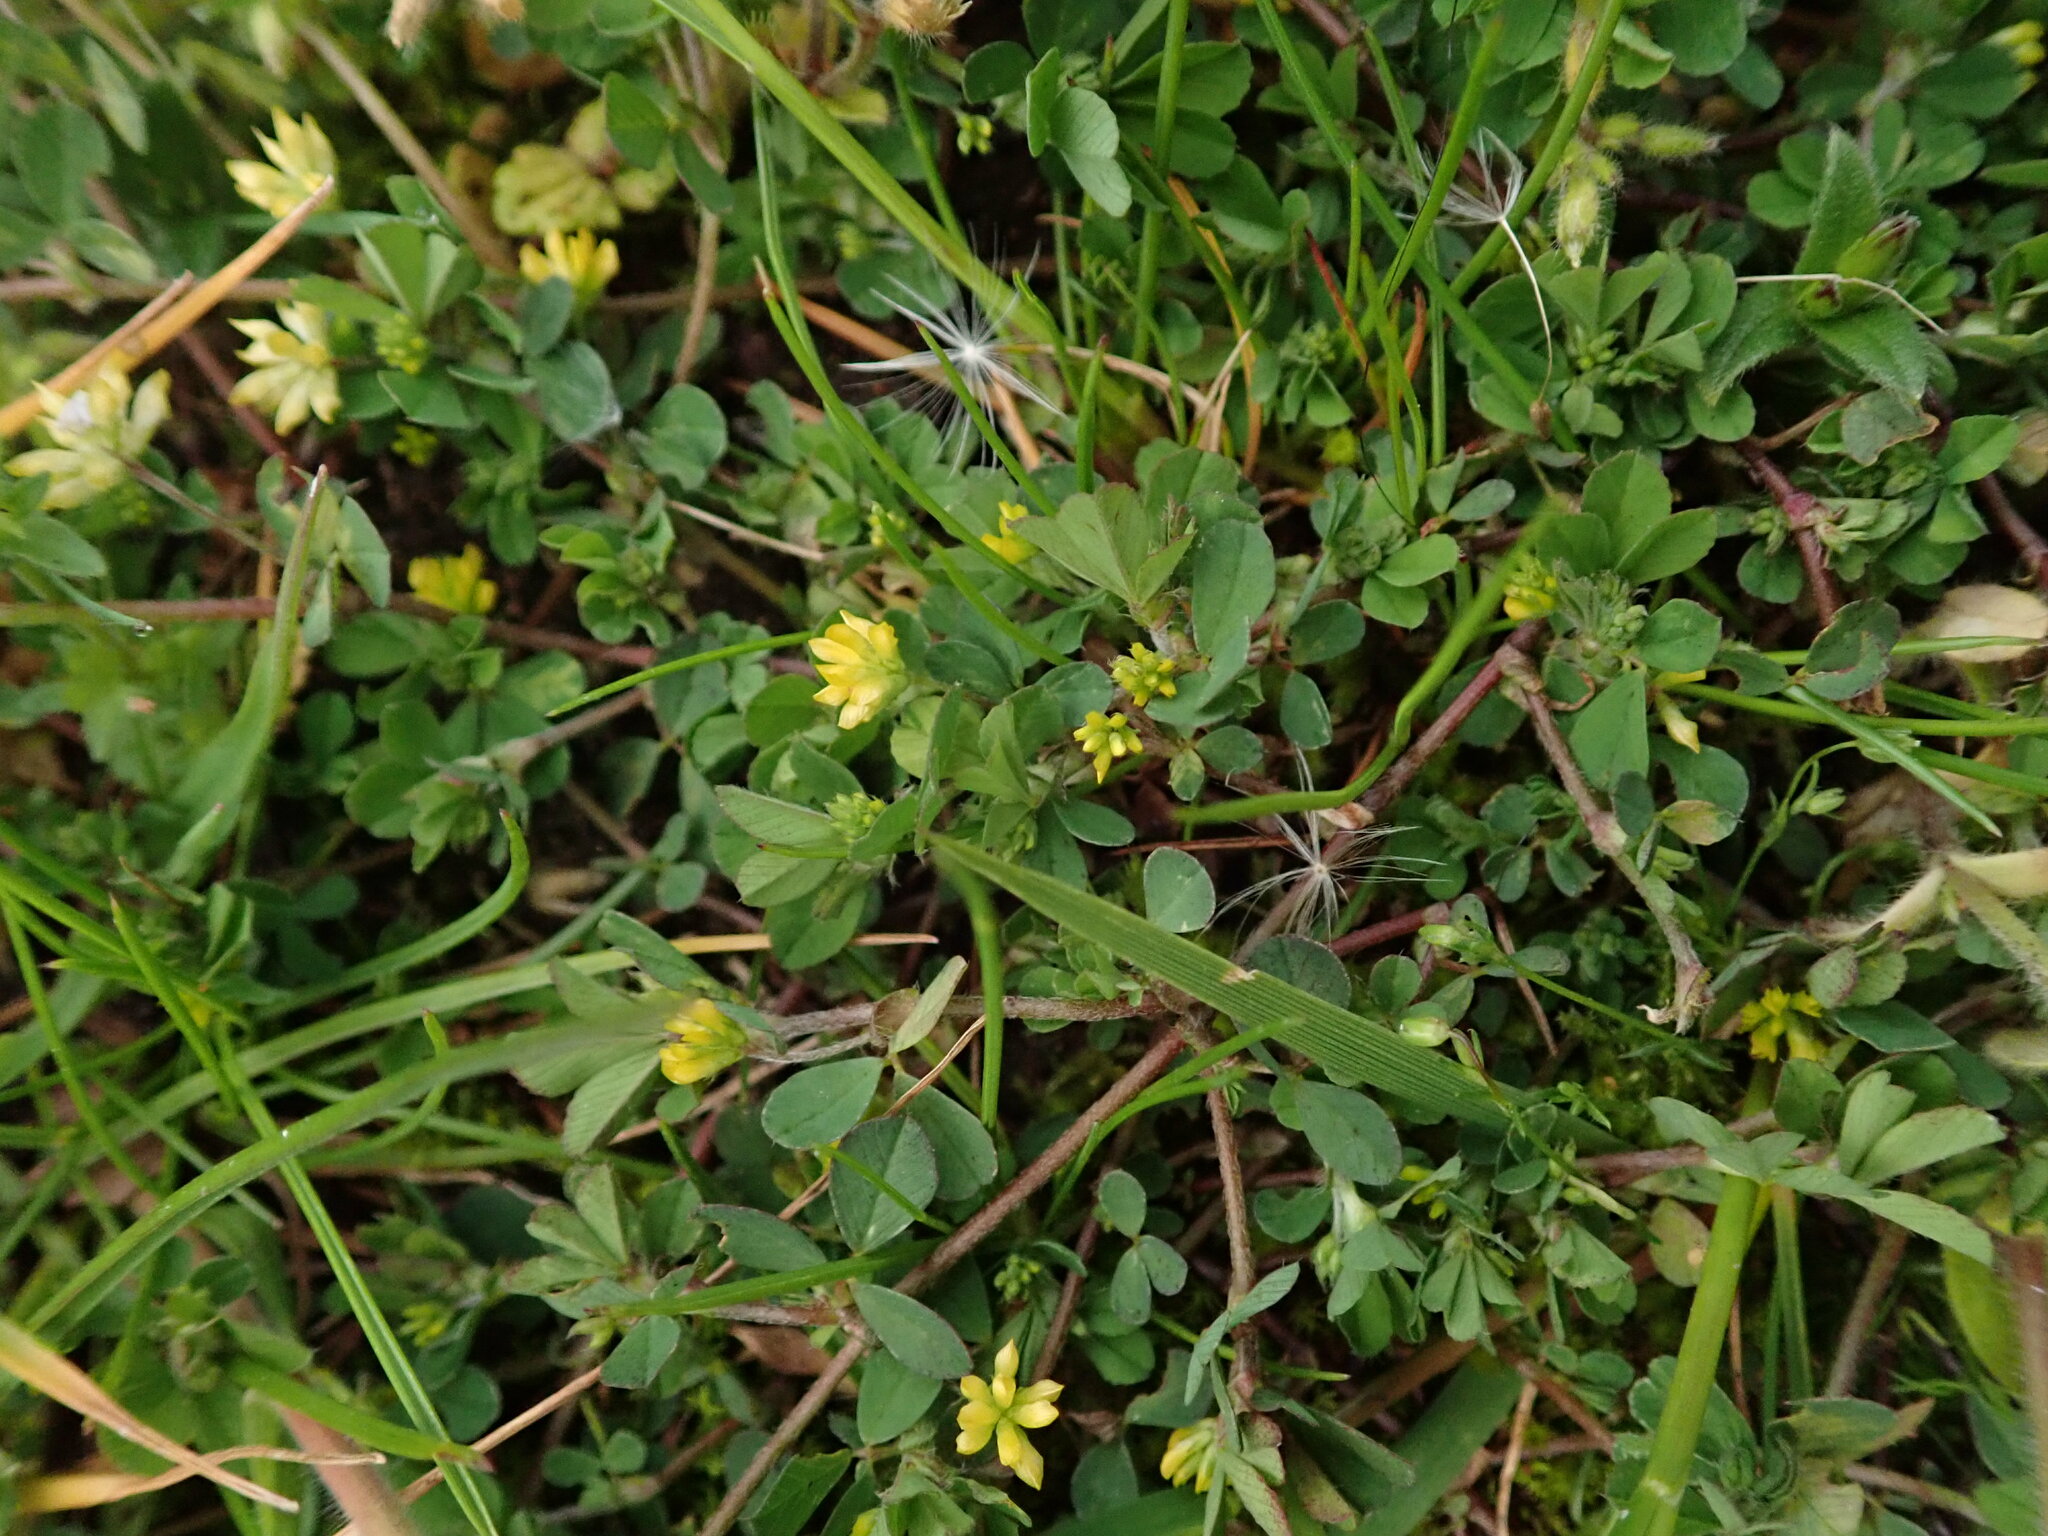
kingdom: Plantae
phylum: Tracheophyta
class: Magnoliopsida
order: Fabales
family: Fabaceae
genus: Trifolium
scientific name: Trifolium dubium
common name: Suckling clover
